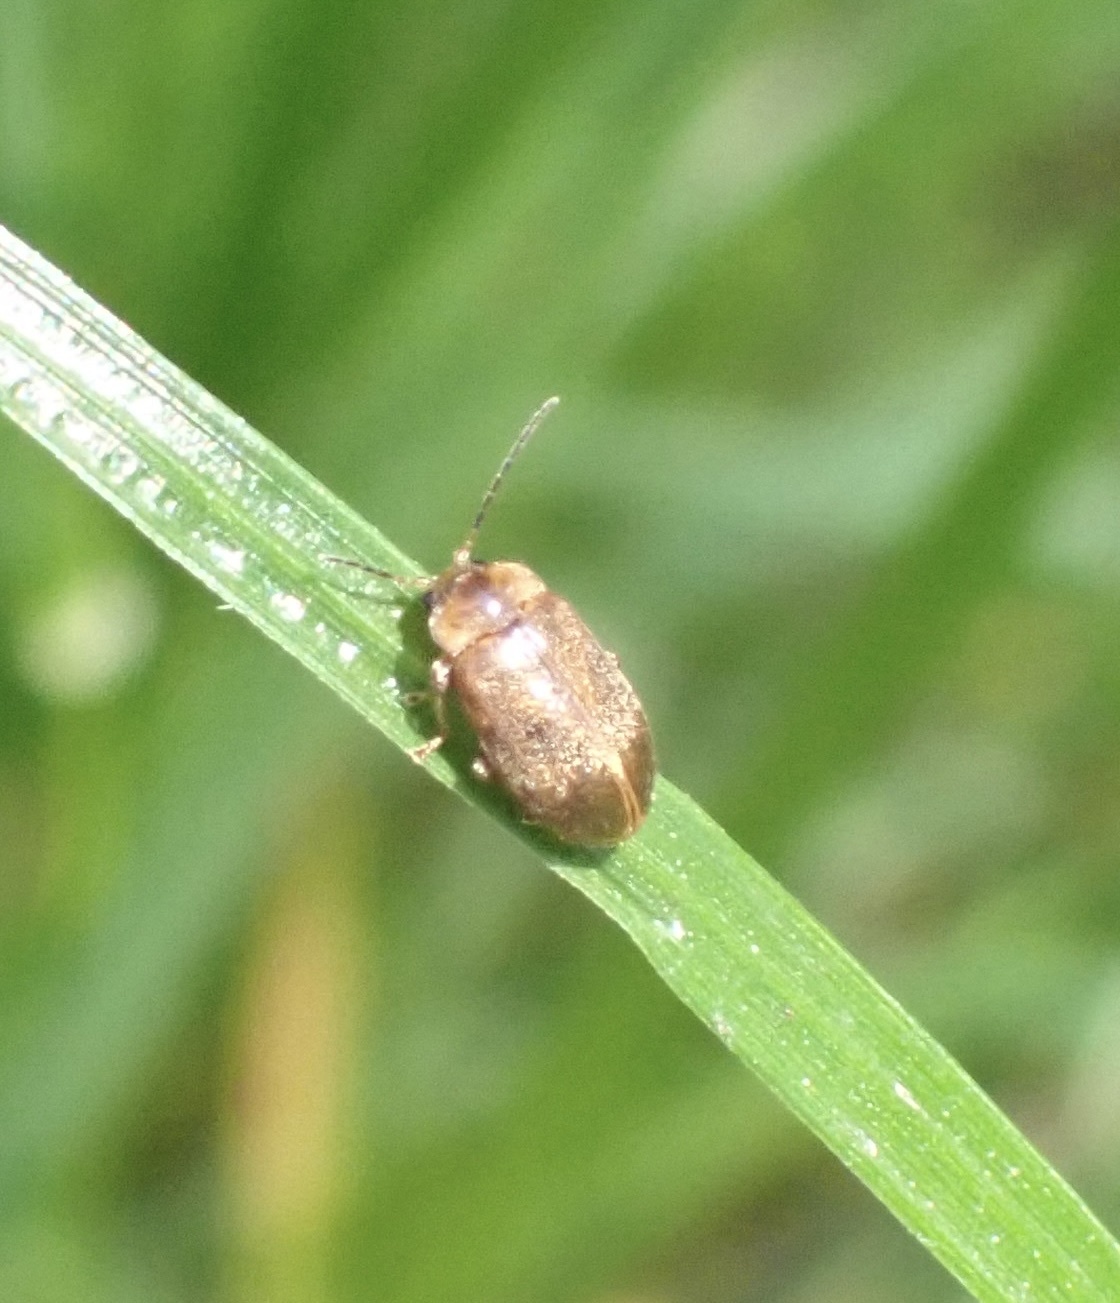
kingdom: Animalia
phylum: Arthropoda
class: Insecta
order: Coleoptera
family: Scirtidae
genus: Microcara
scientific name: Microcara testacea
